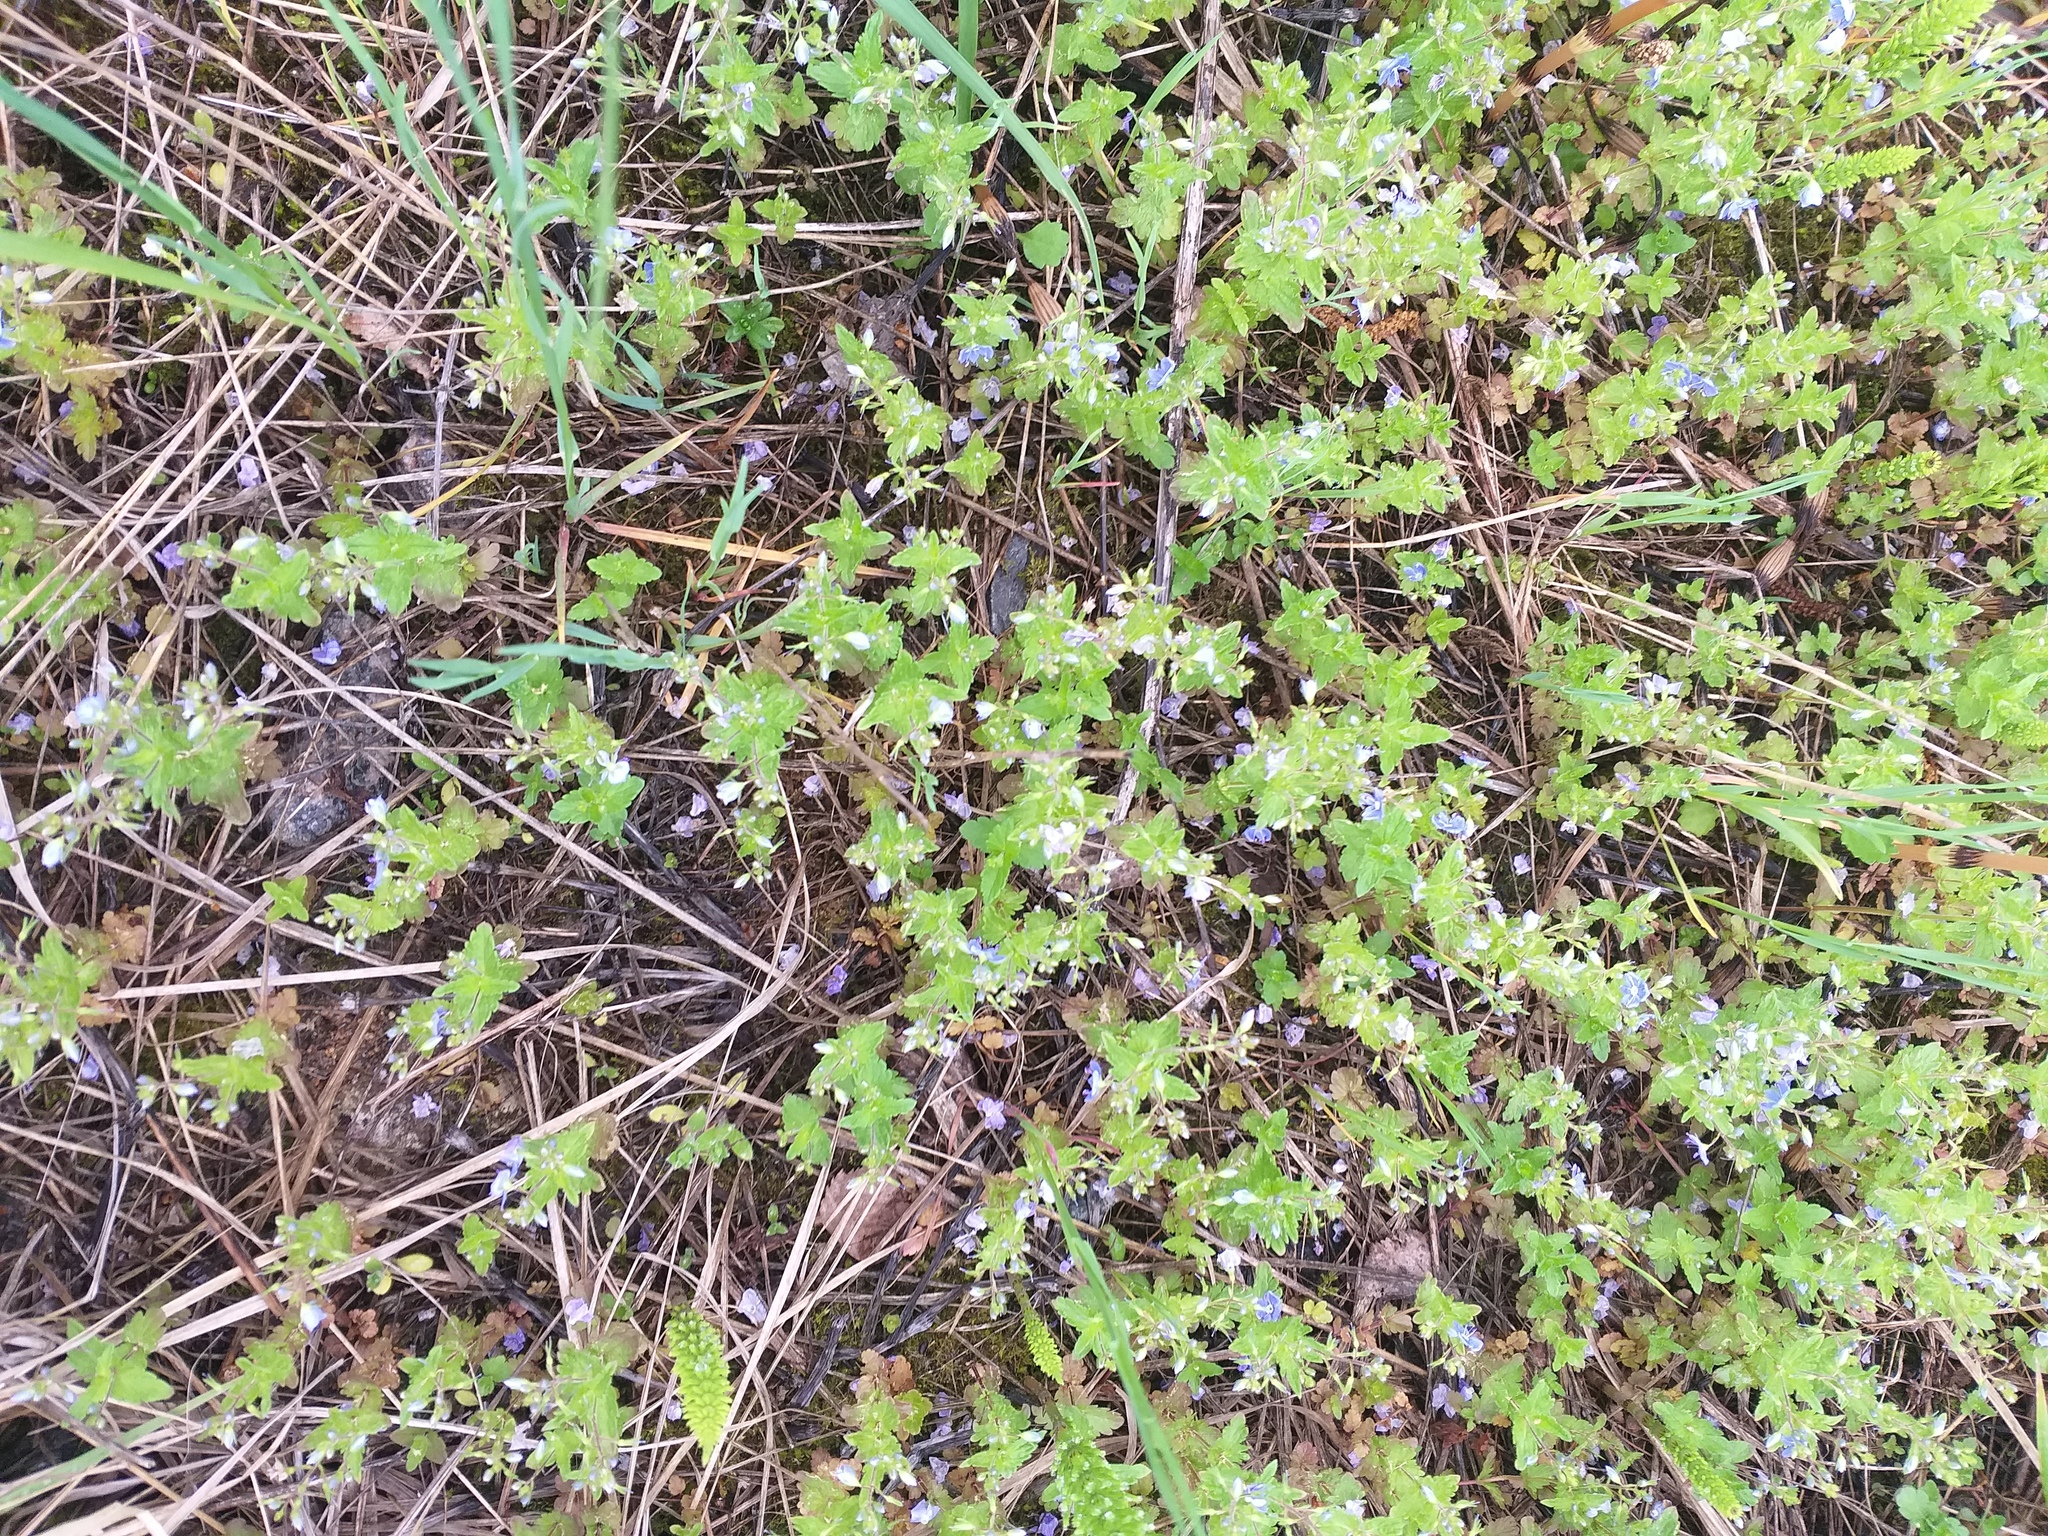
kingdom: Plantae
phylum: Tracheophyta
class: Magnoliopsida
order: Lamiales
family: Plantaginaceae
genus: Veronica
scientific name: Veronica chamaedrys
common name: Germander speedwell
